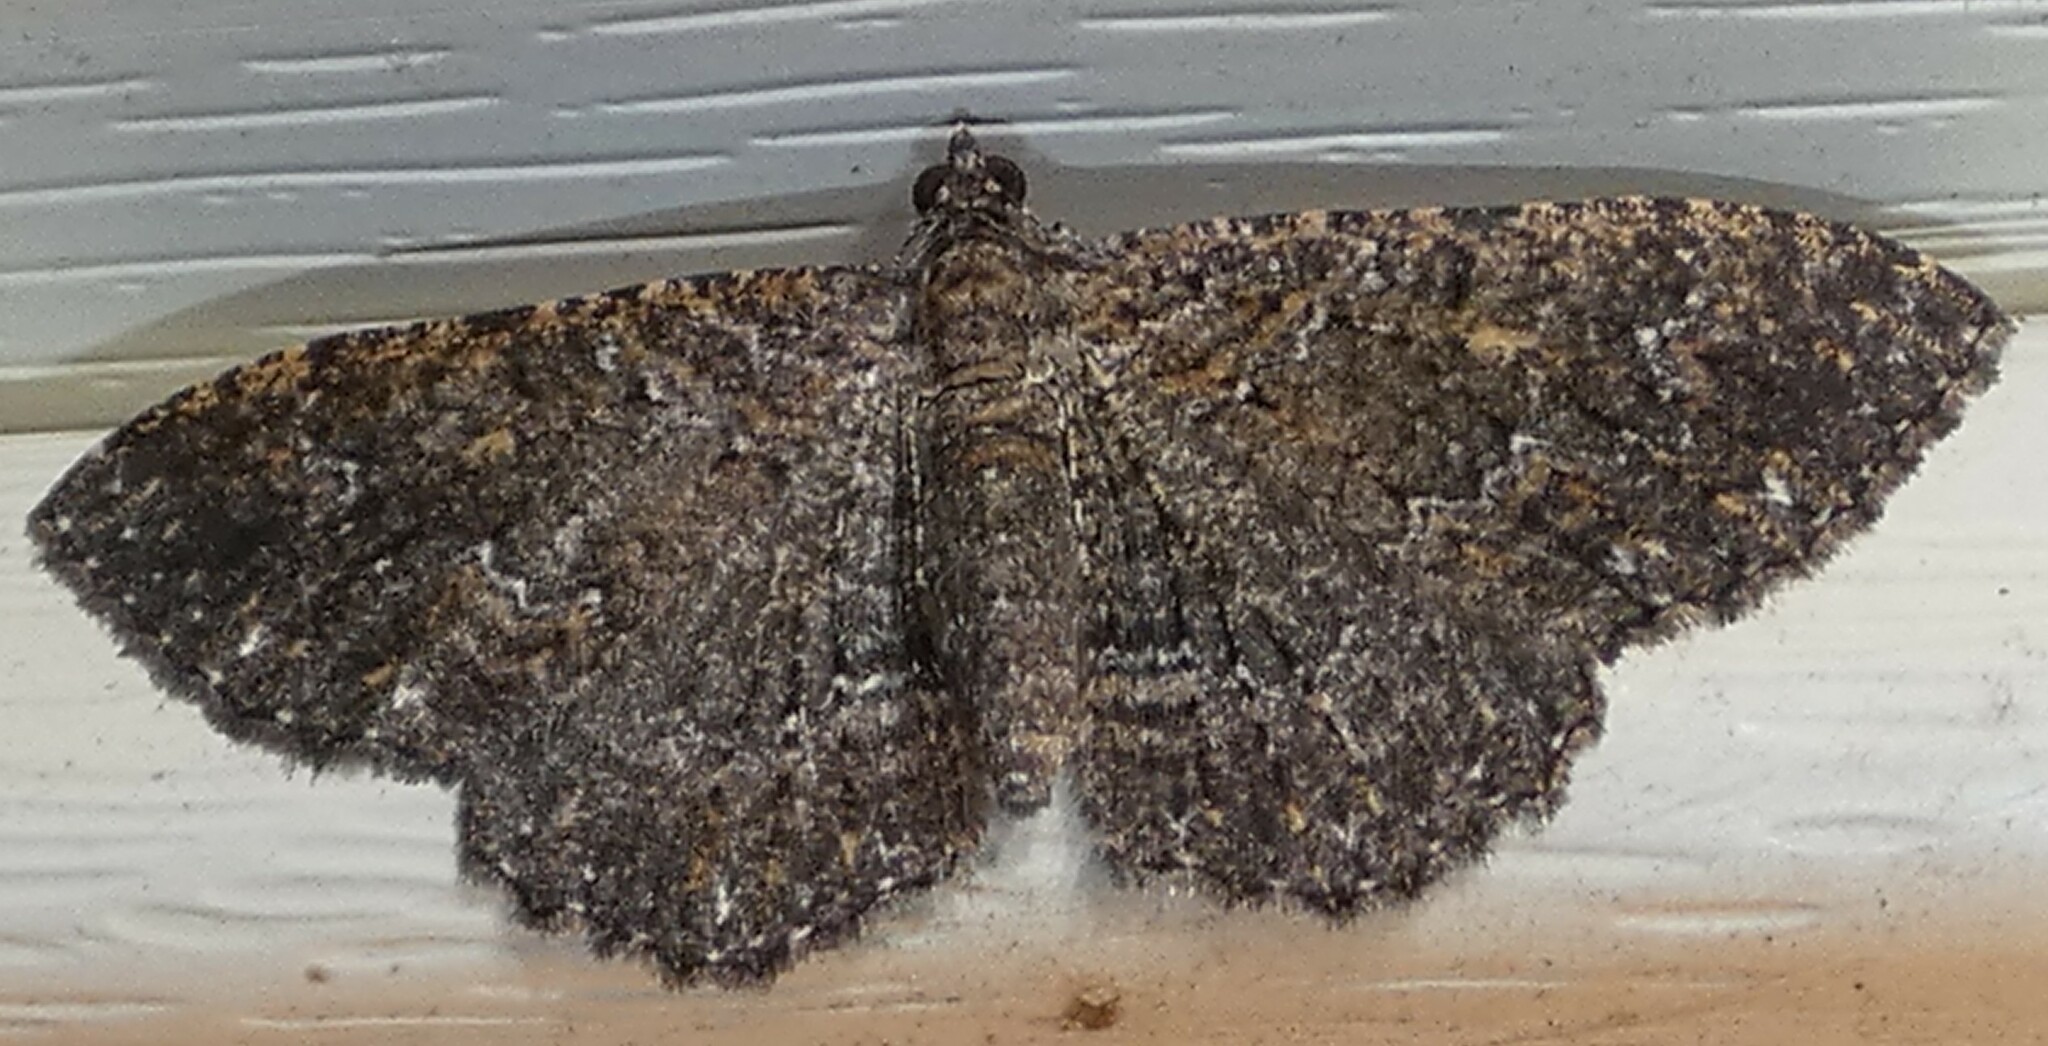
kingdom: Animalia
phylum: Arthropoda
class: Insecta
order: Lepidoptera
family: Geometridae
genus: Disclisioprocta
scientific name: Disclisioprocta stellata
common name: Somber carpet
